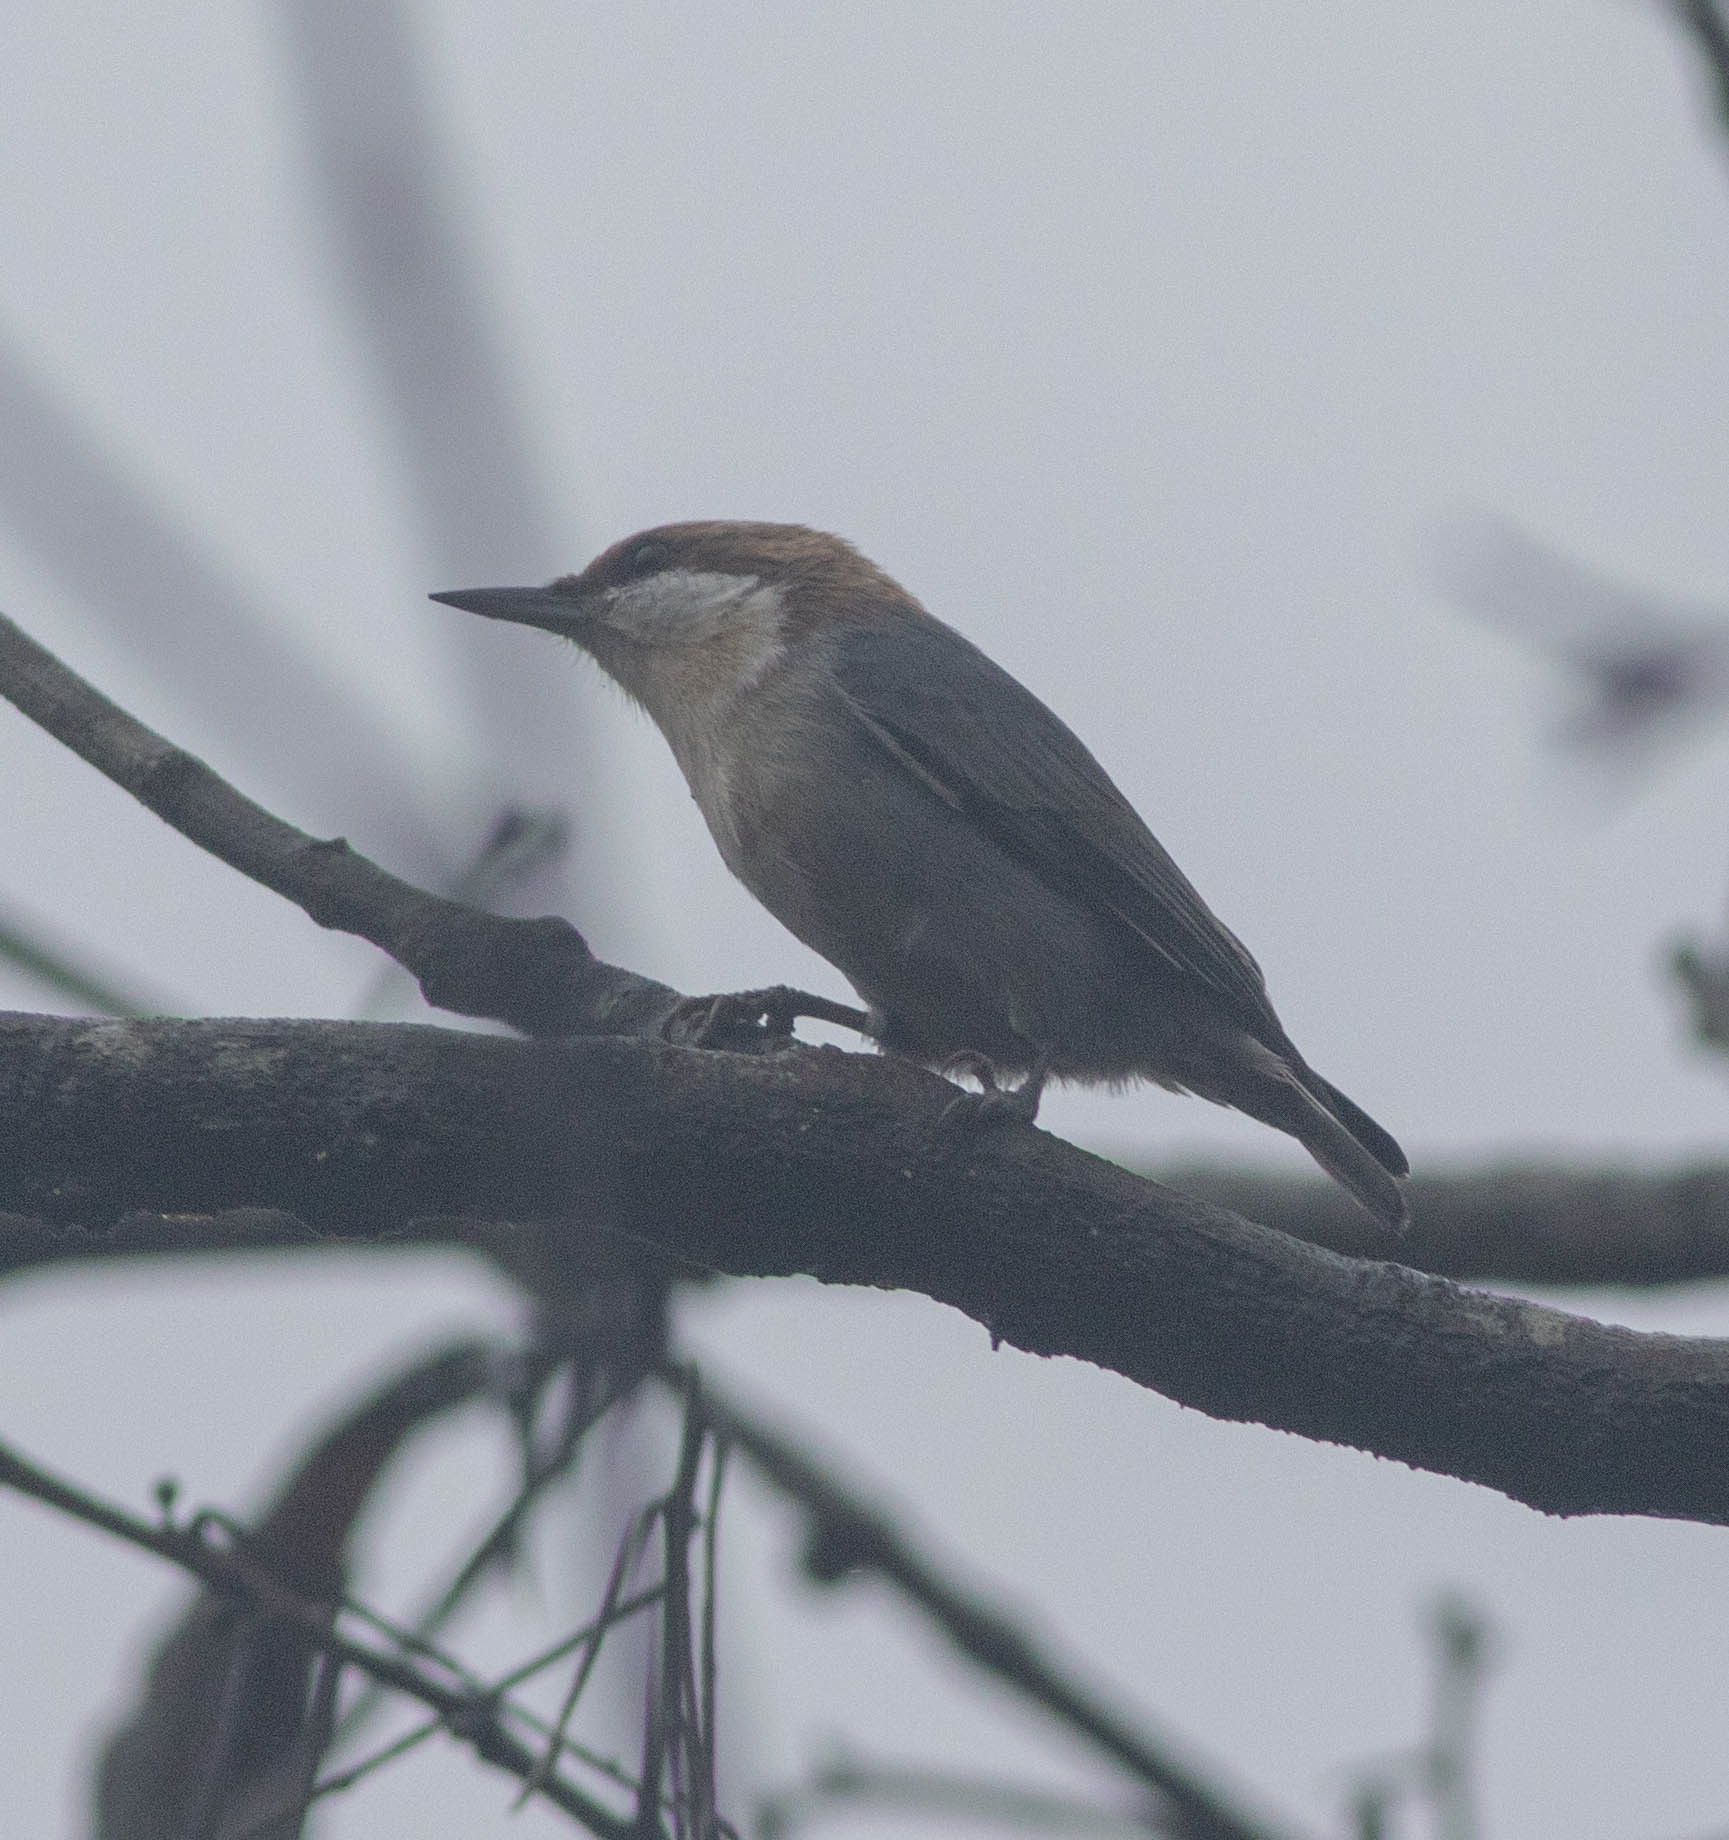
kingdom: Animalia
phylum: Chordata
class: Aves
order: Passeriformes
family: Sittidae
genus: Sitta
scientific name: Sitta pusilla
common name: Brown-headed nuthatch
